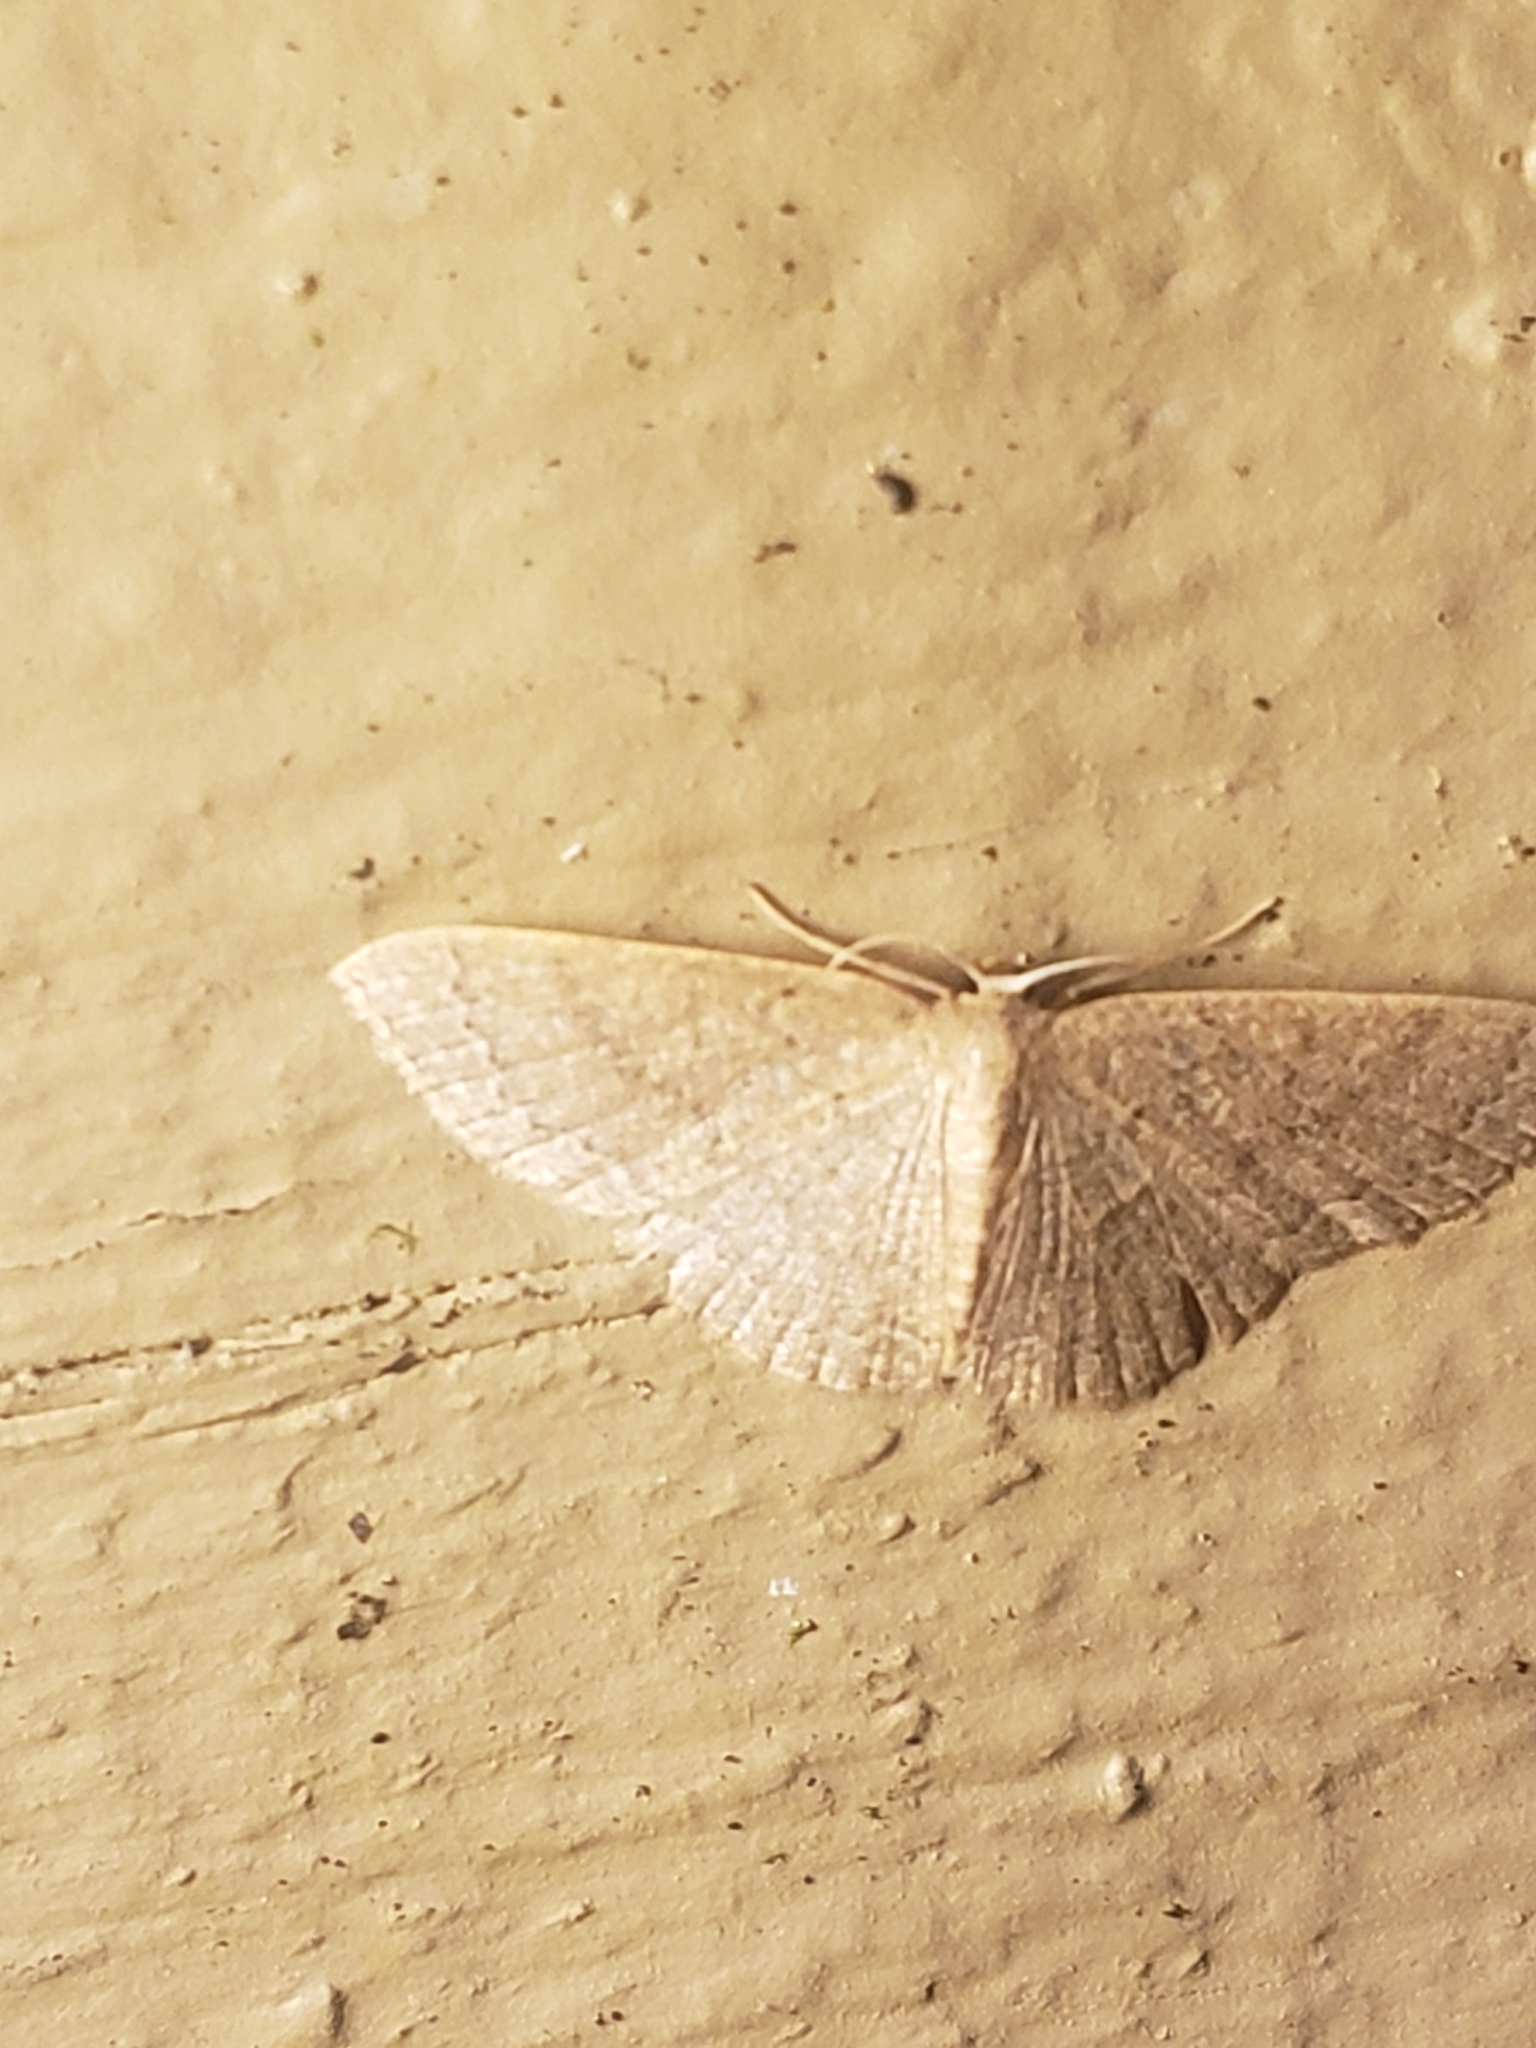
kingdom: Animalia
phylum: Arthropoda
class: Insecta
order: Lepidoptera
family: Geometridae
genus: Pleuroprucha
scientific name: Pleuroprucha insulsaria
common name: Common tan wave
